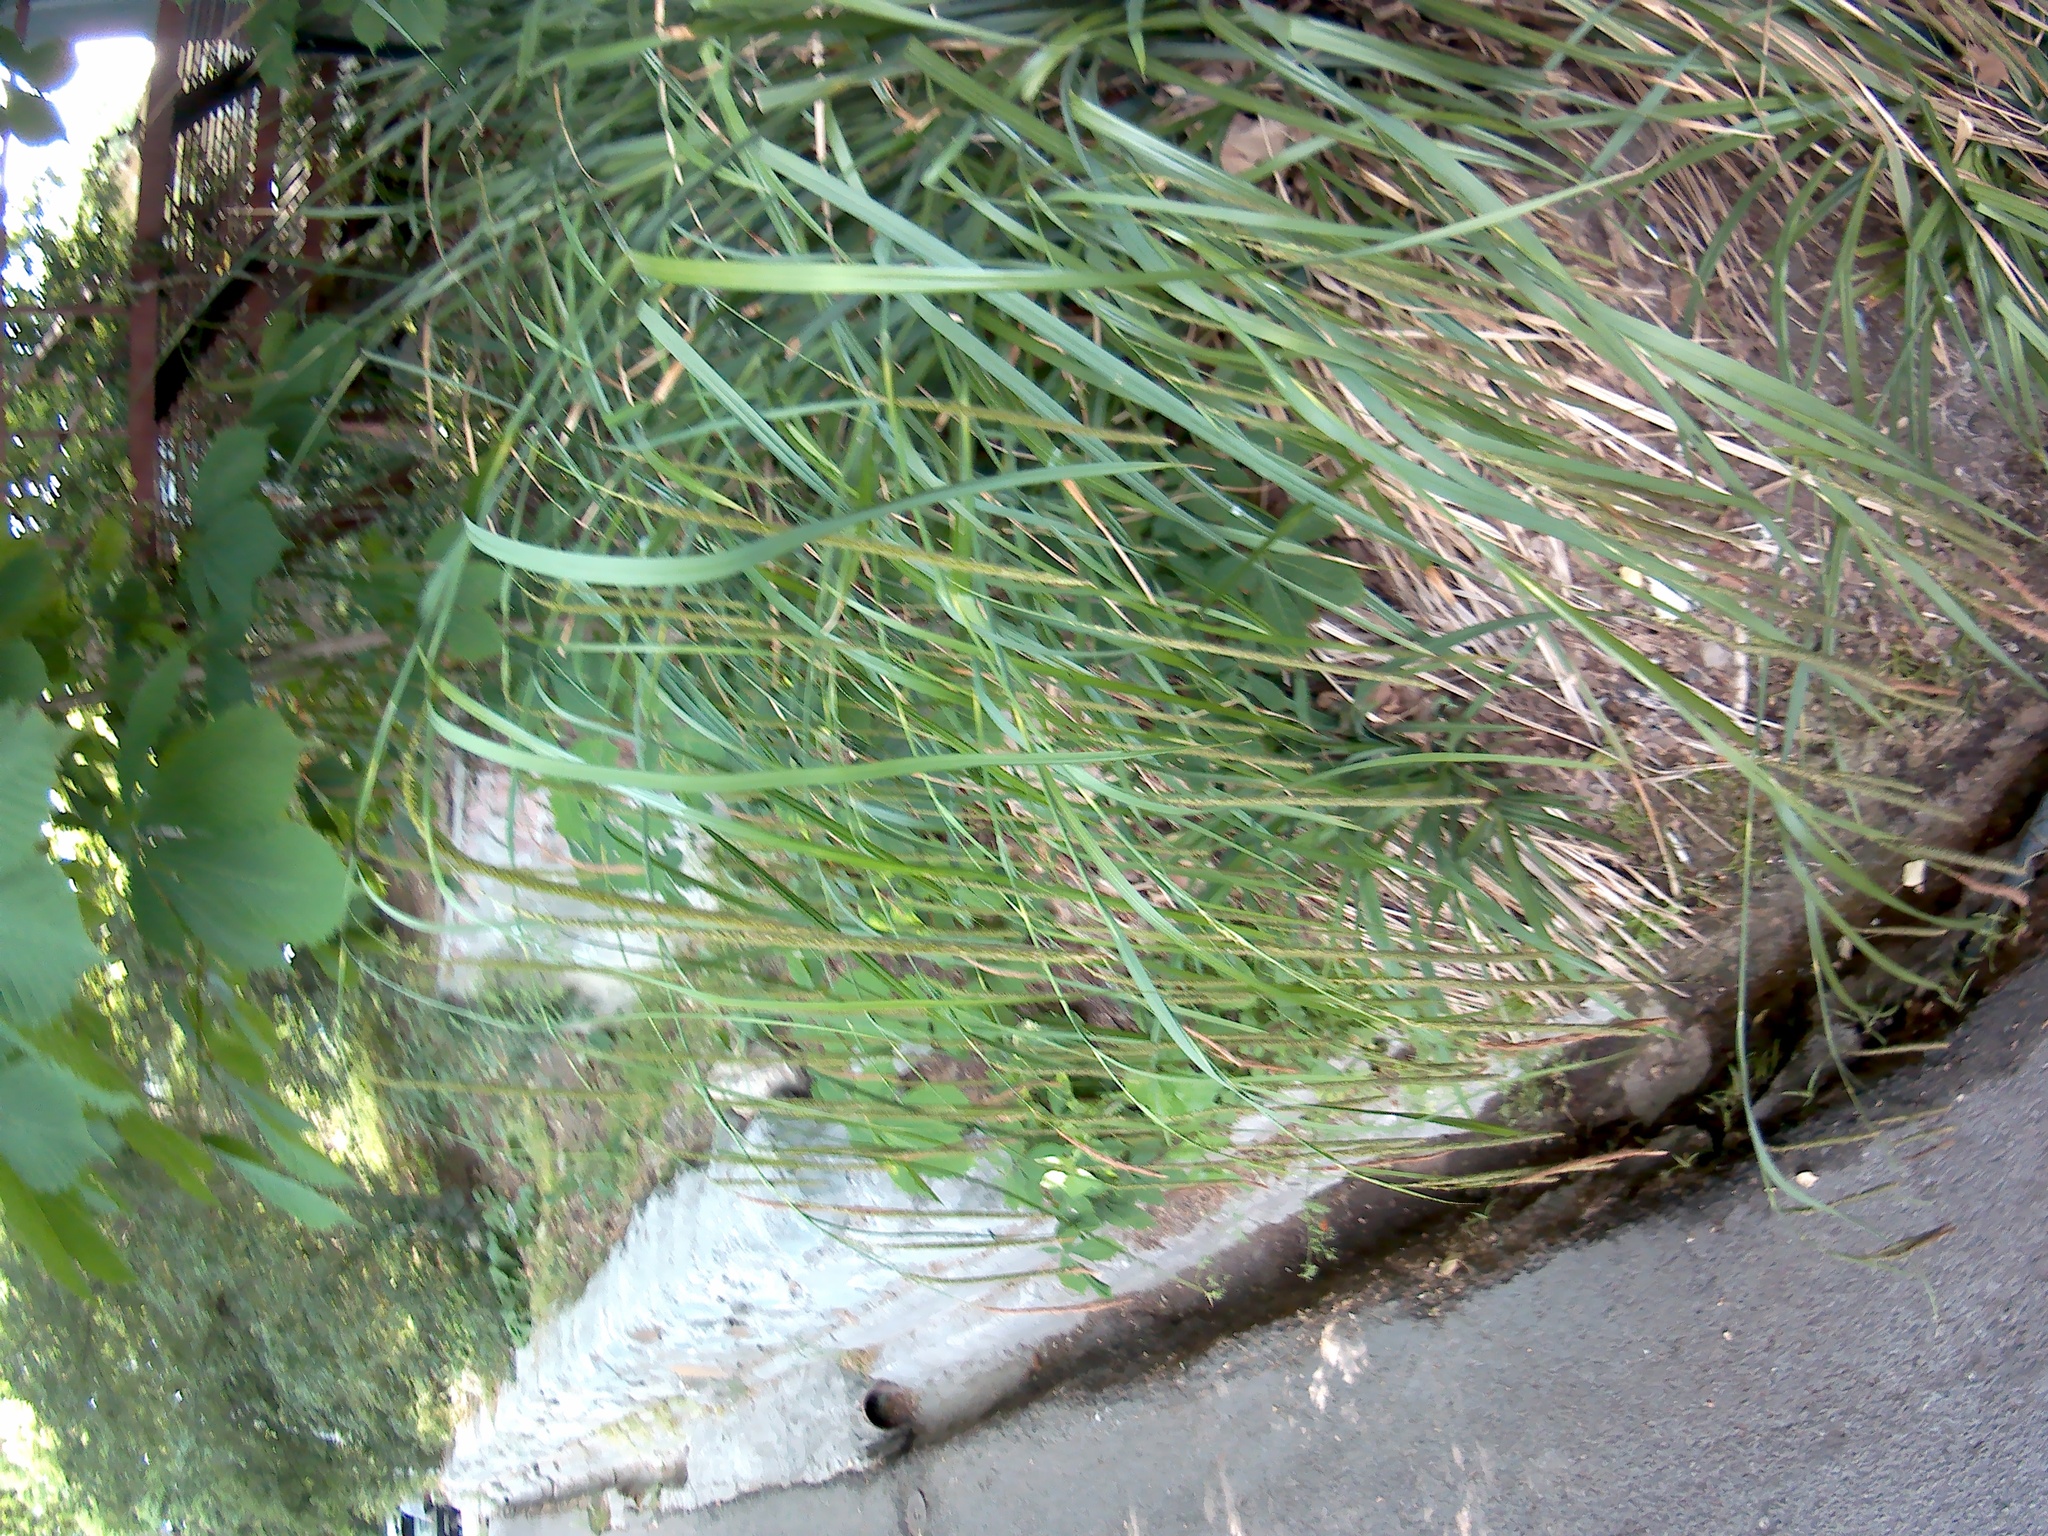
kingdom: Plantae
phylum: Tracheophyta
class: Liliopsida
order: Poales
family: Cyperaceae
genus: Carex
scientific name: Carex pendula
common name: Pendulous sedge
